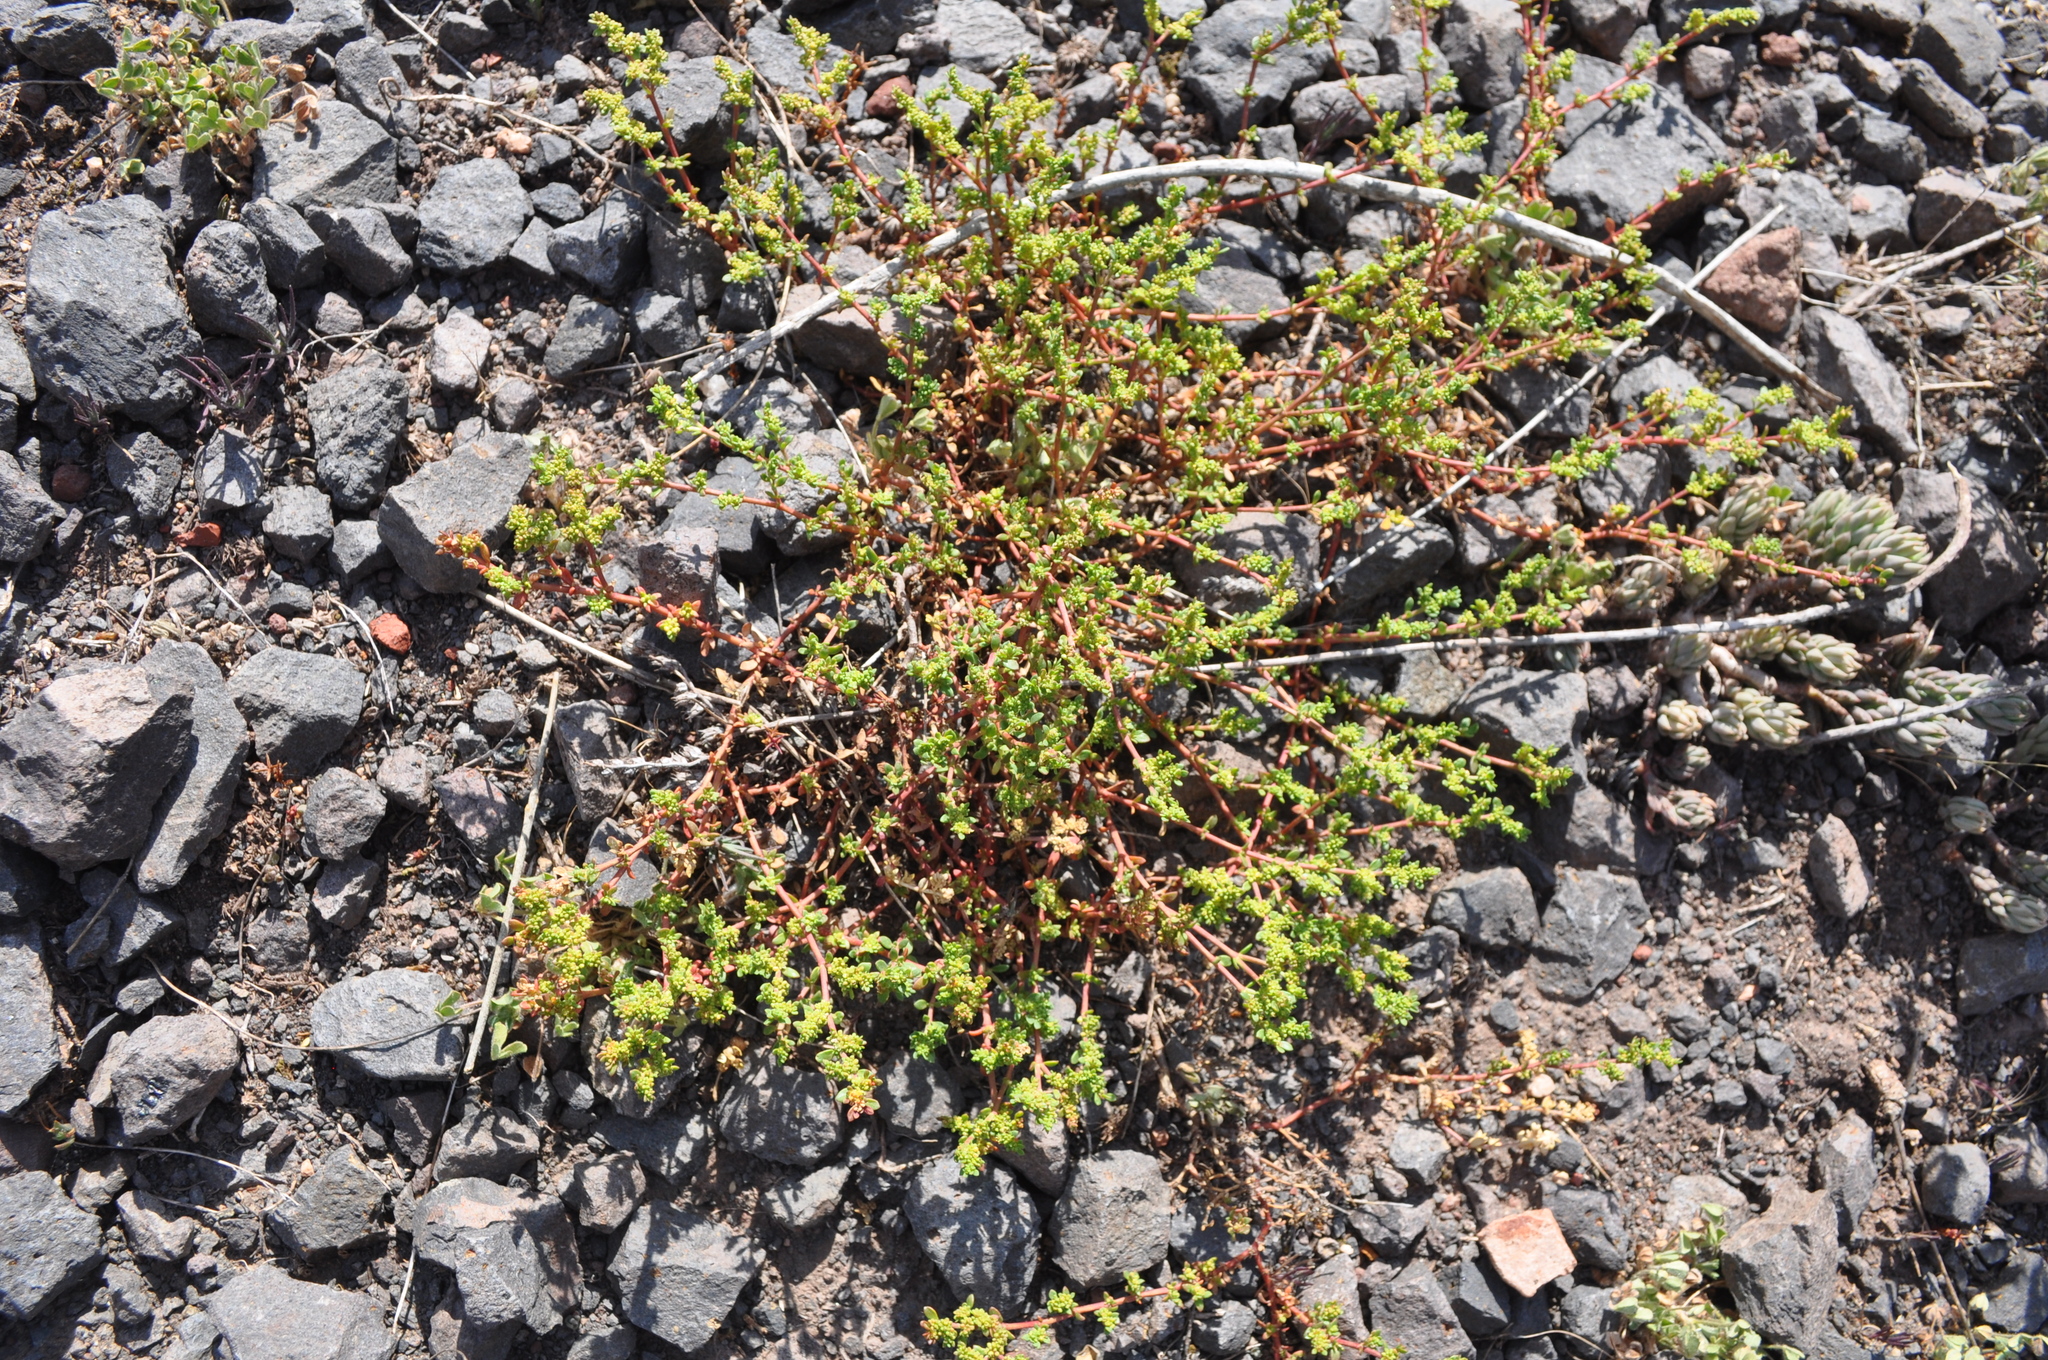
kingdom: Plantae
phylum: Tracheophyta
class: Magnoliopsida
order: Caryophyllales
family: Caryophyllaceae
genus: Herniaria
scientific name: Herniaria glabra
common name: Smooth rupturewort
